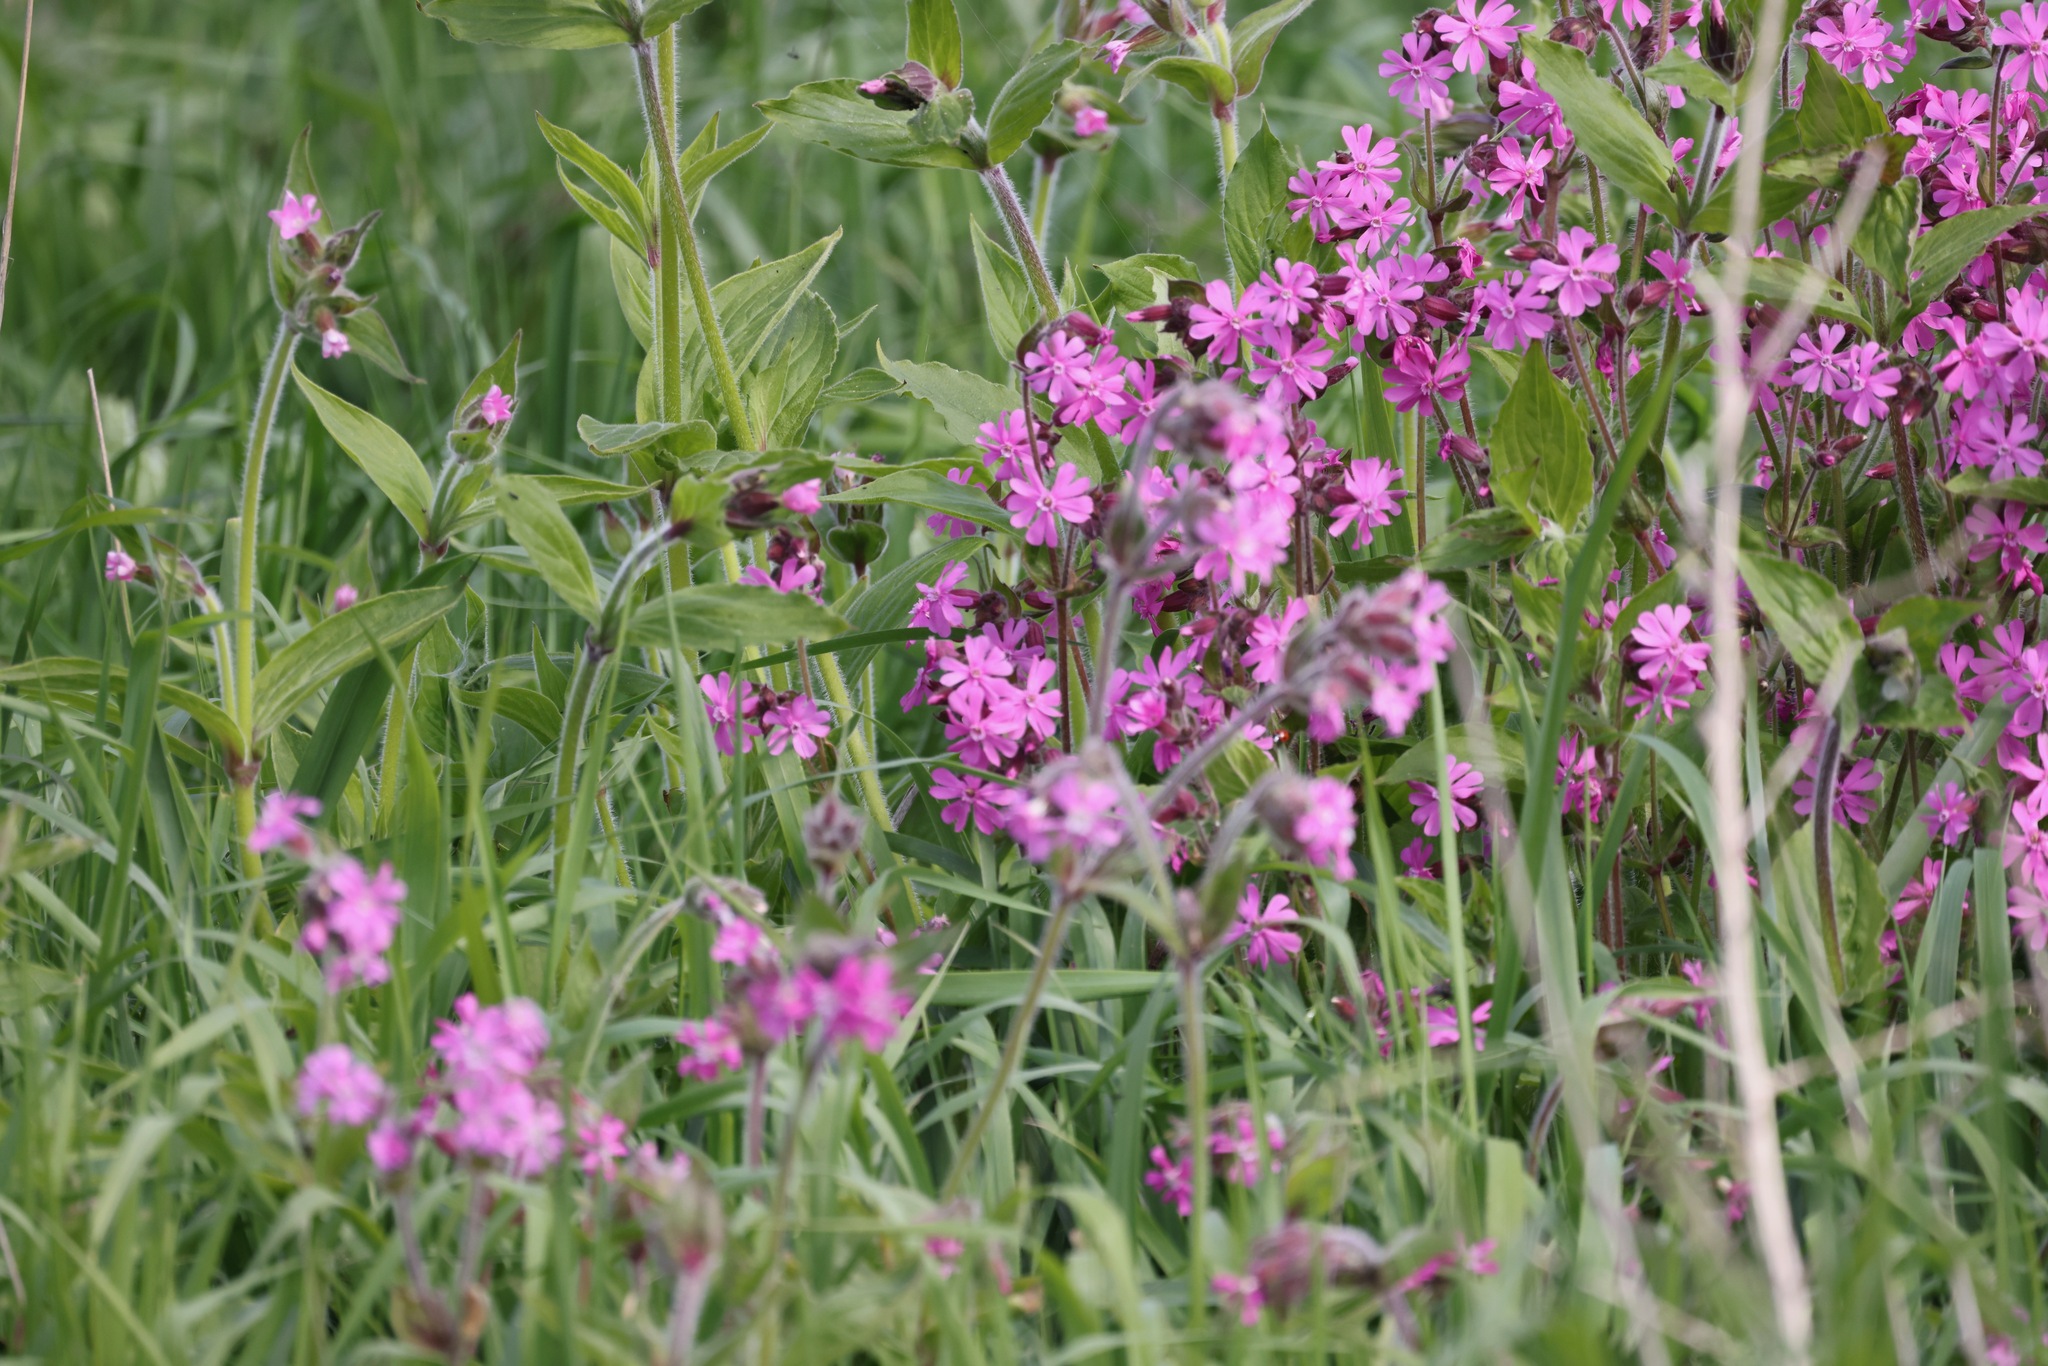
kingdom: Plantae
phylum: Tracheophyta
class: Magnoliopsida
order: Caryophyllales
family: Caryophyllaceae
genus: Silene
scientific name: Silene dioica
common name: Red campion
